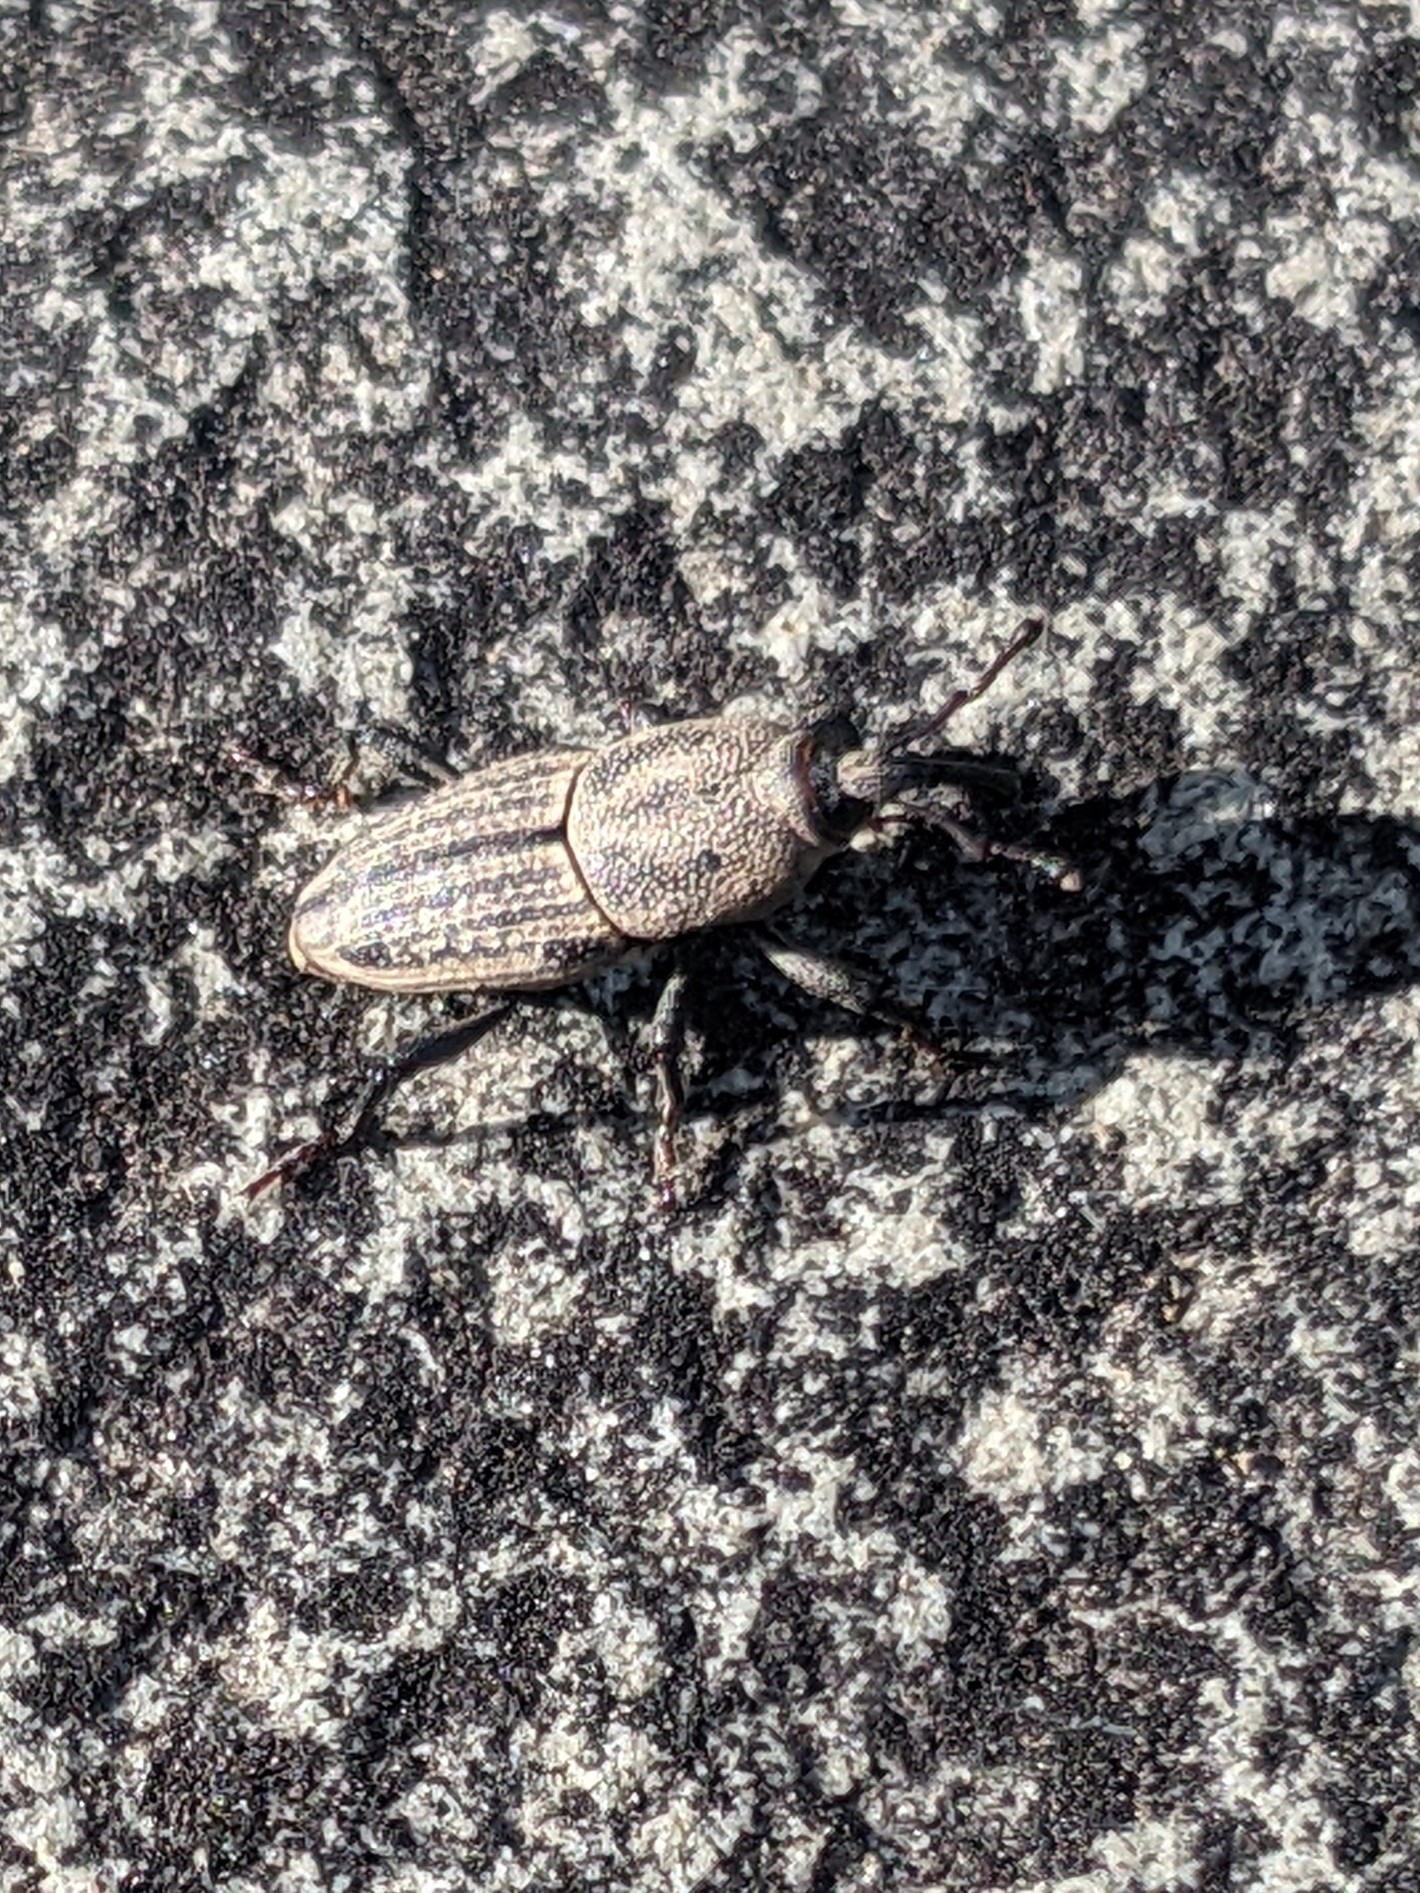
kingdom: Animalia
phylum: Arthropoda
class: Insecta
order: Coleoptera
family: Dryophthoridae
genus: Sphenophorus
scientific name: Sphenophorus interstitialis
